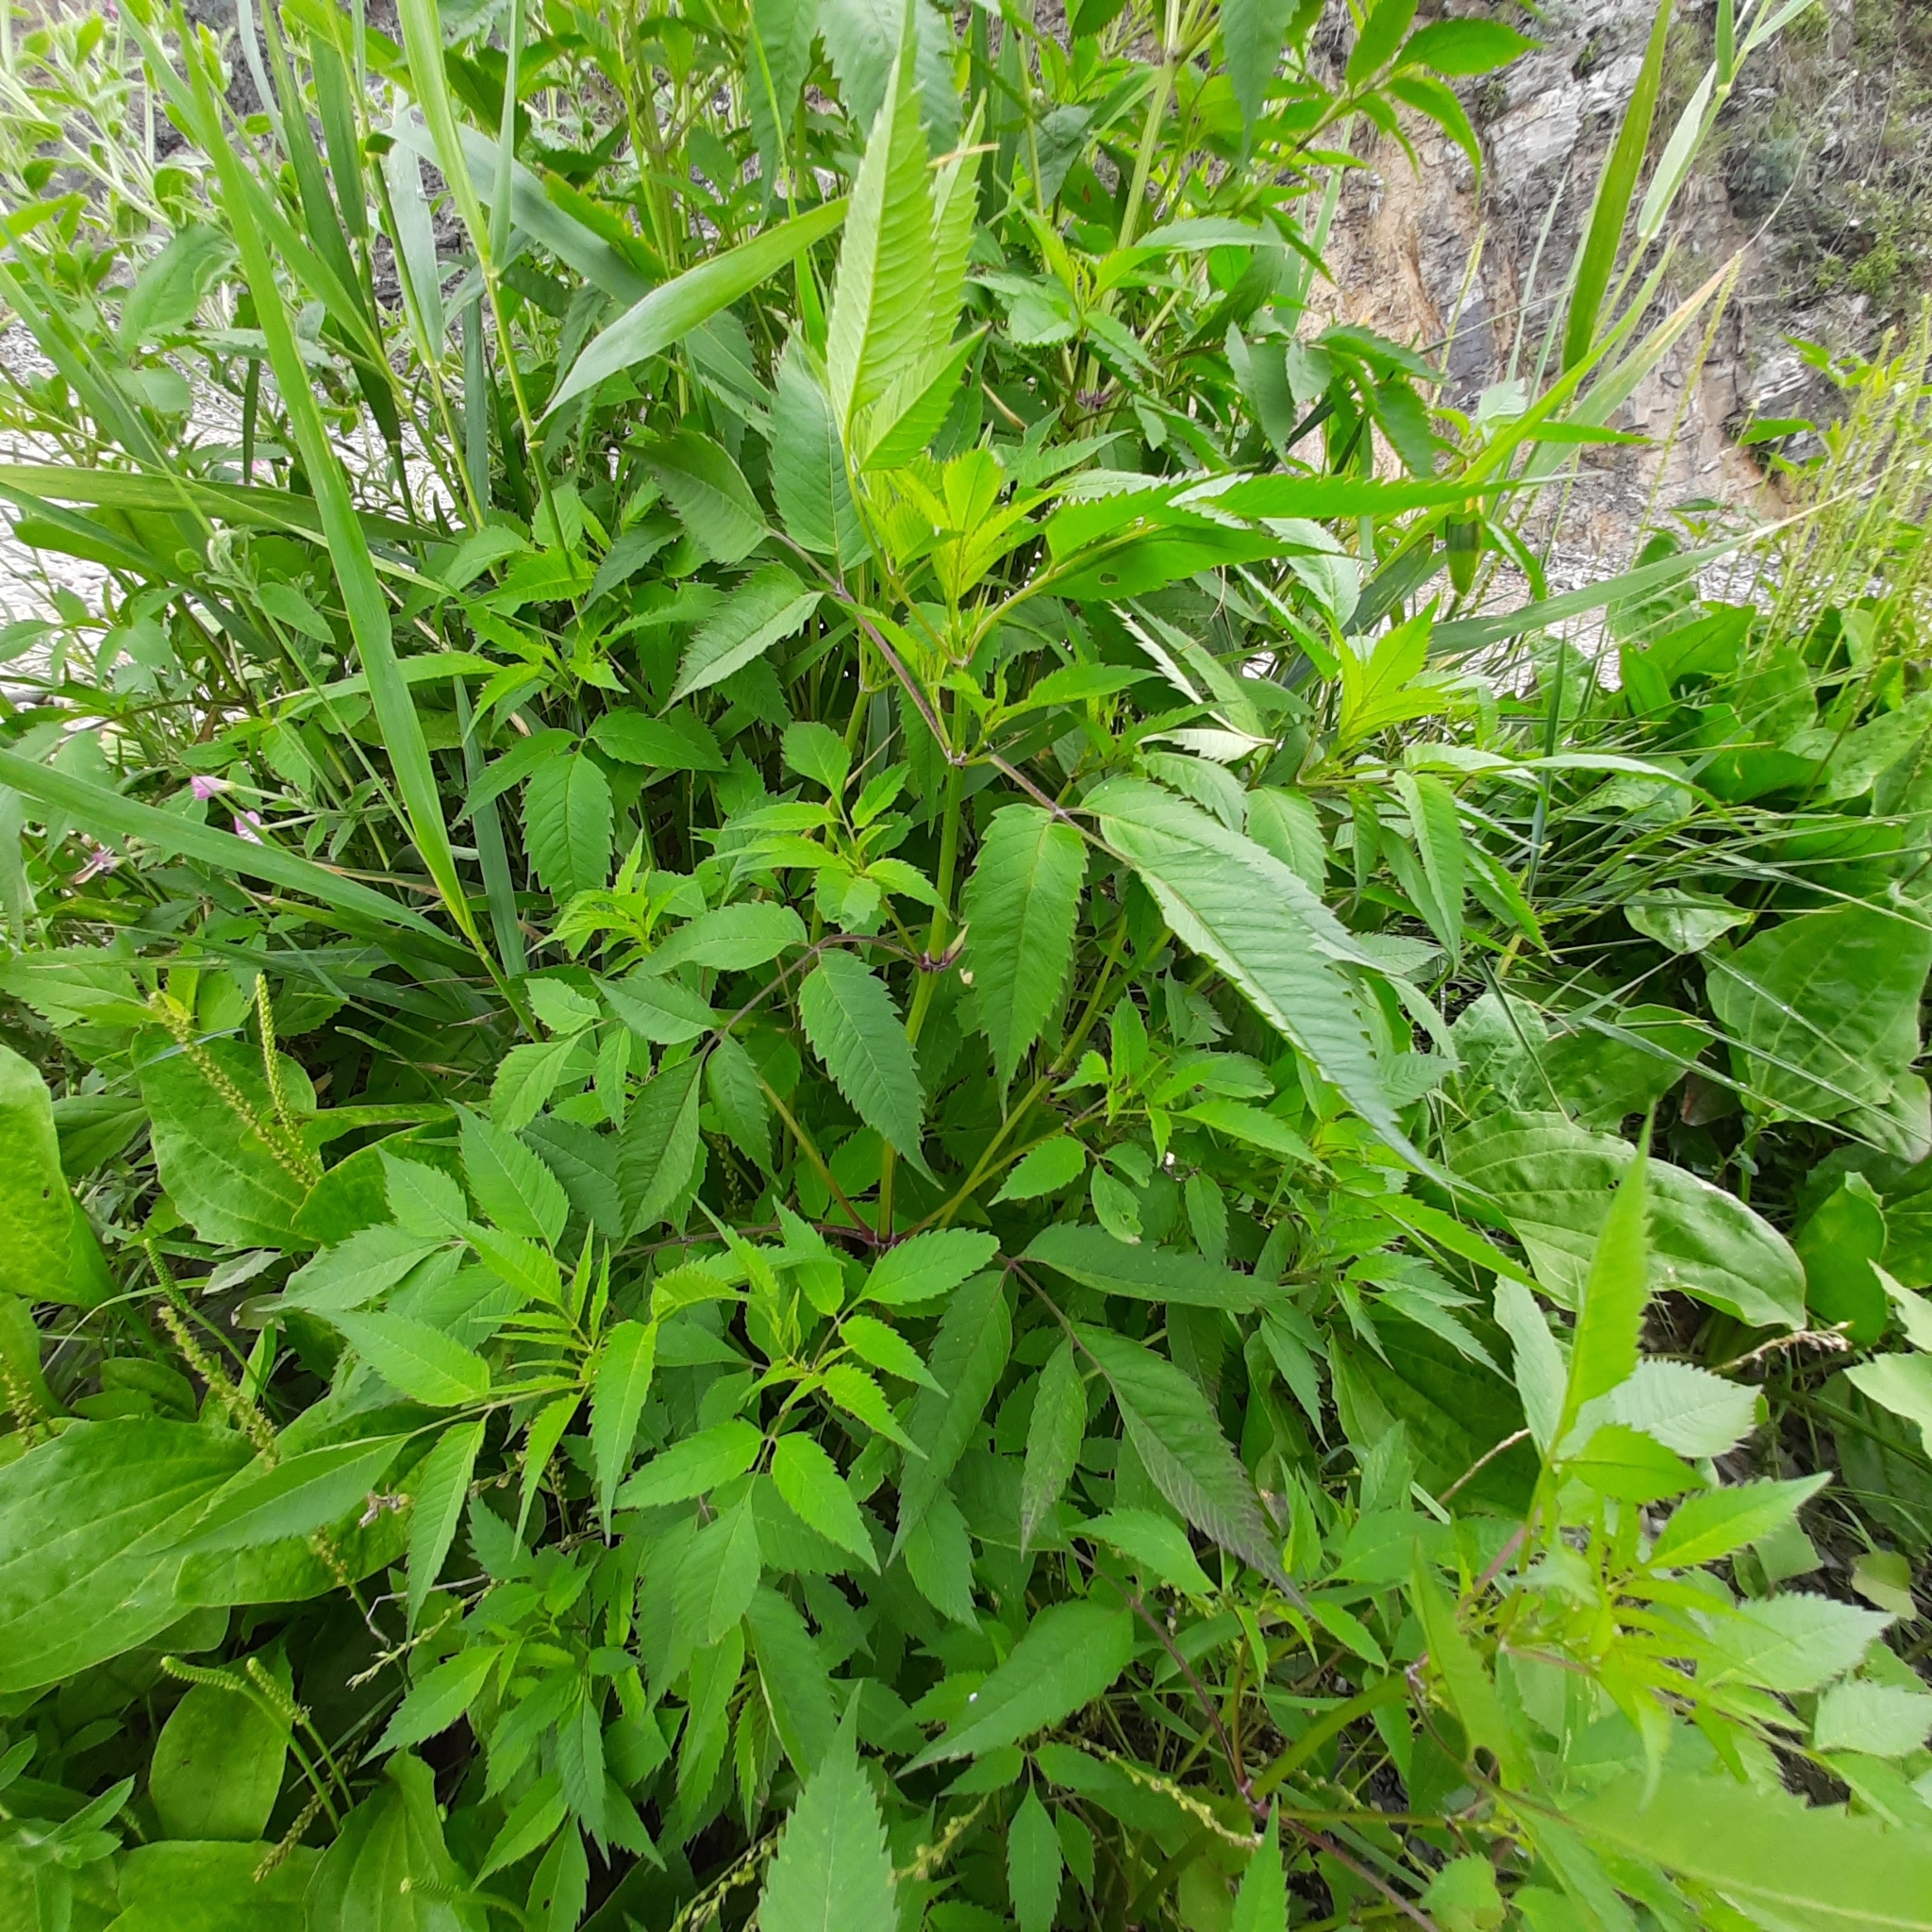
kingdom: Plantae
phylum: Tracheophyta
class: Magnoliopsida
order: Asterales
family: Asteraceae
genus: Bidens
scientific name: Bidens frondosa
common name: Beggarticks
